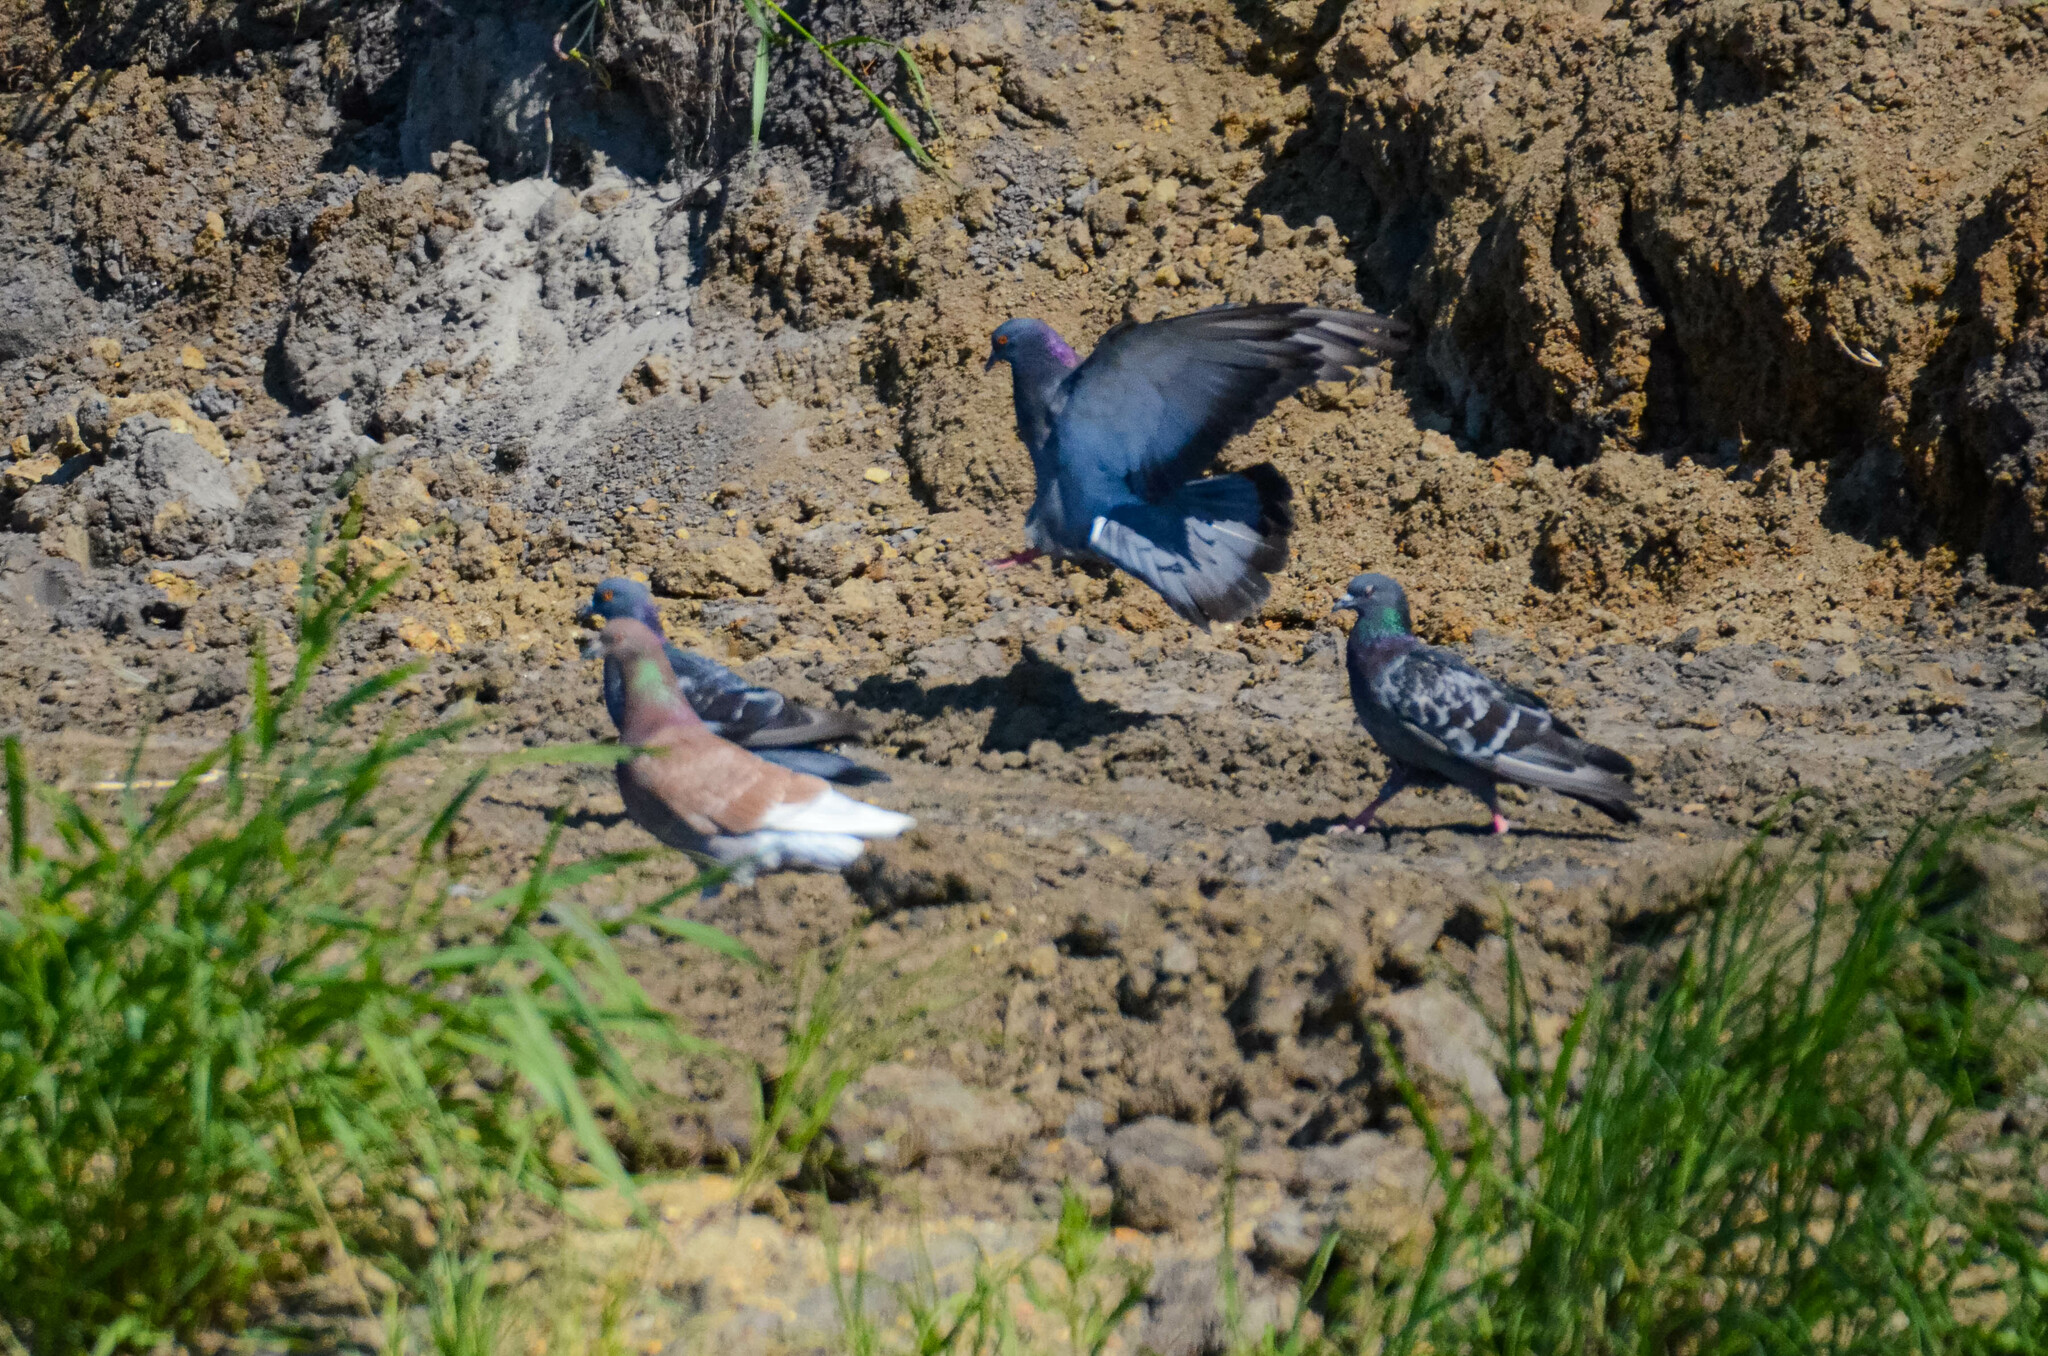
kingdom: Animalia
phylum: Chordata
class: Aves
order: Columbiformes
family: Columbidae
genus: Columba
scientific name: Columba livia
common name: Rock pigeon
